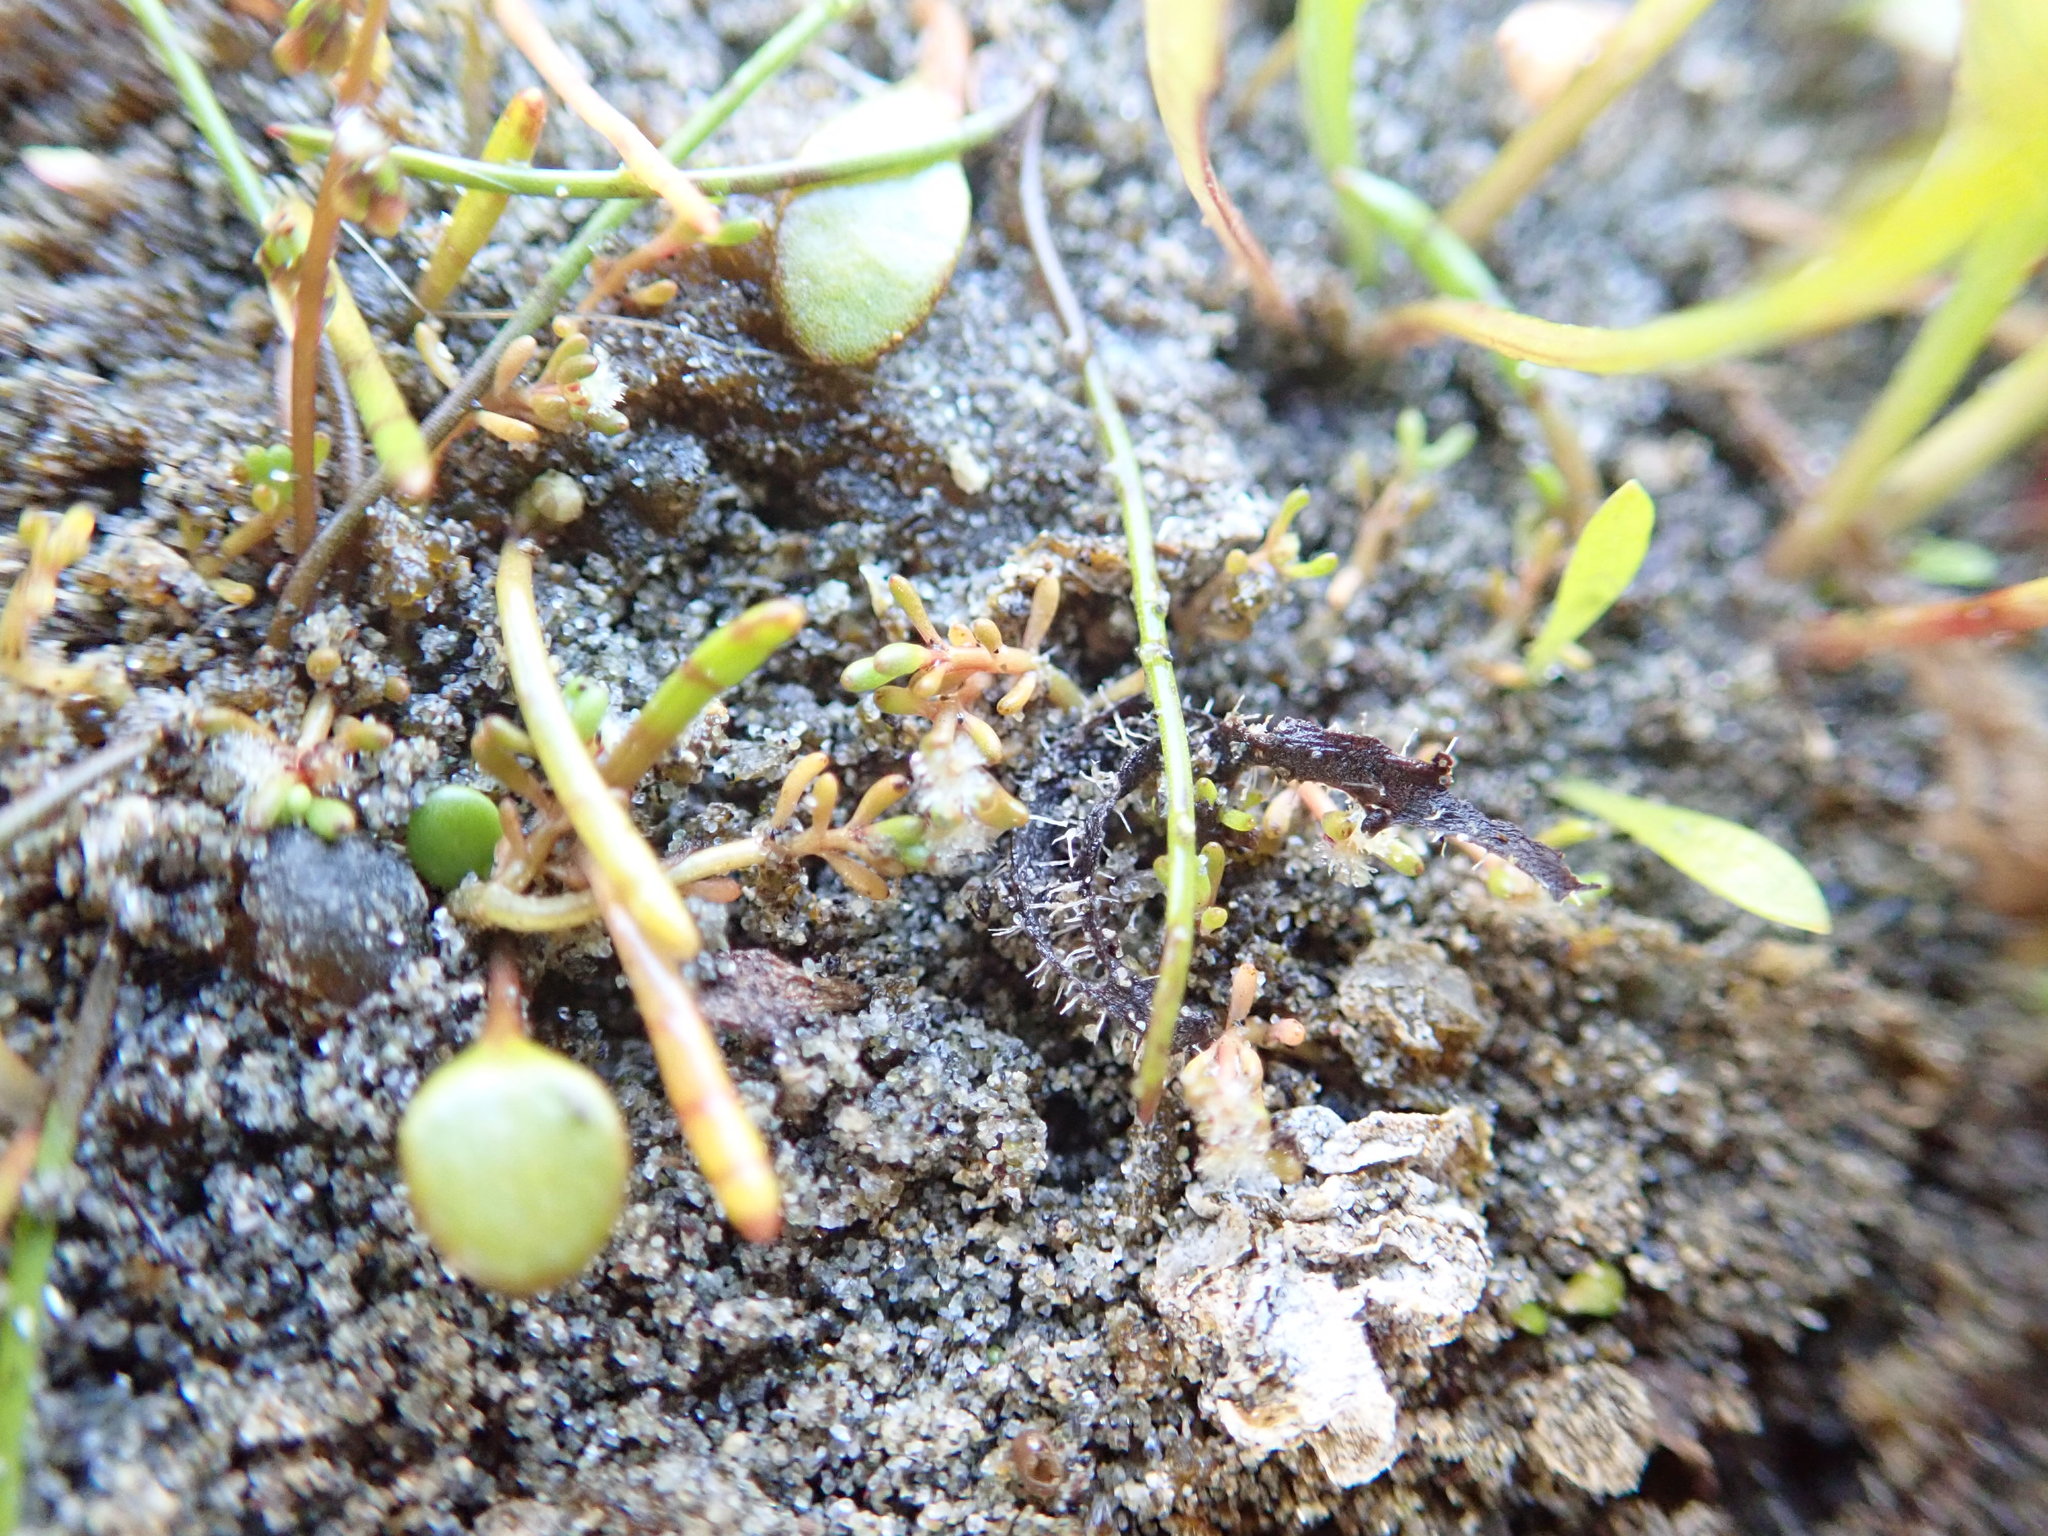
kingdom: Plantae
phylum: Tracheophyta
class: Magnoliopsida
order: Saxifragales
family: Haloragaceae
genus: Myriophyllum
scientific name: Myriophyllum votschii
